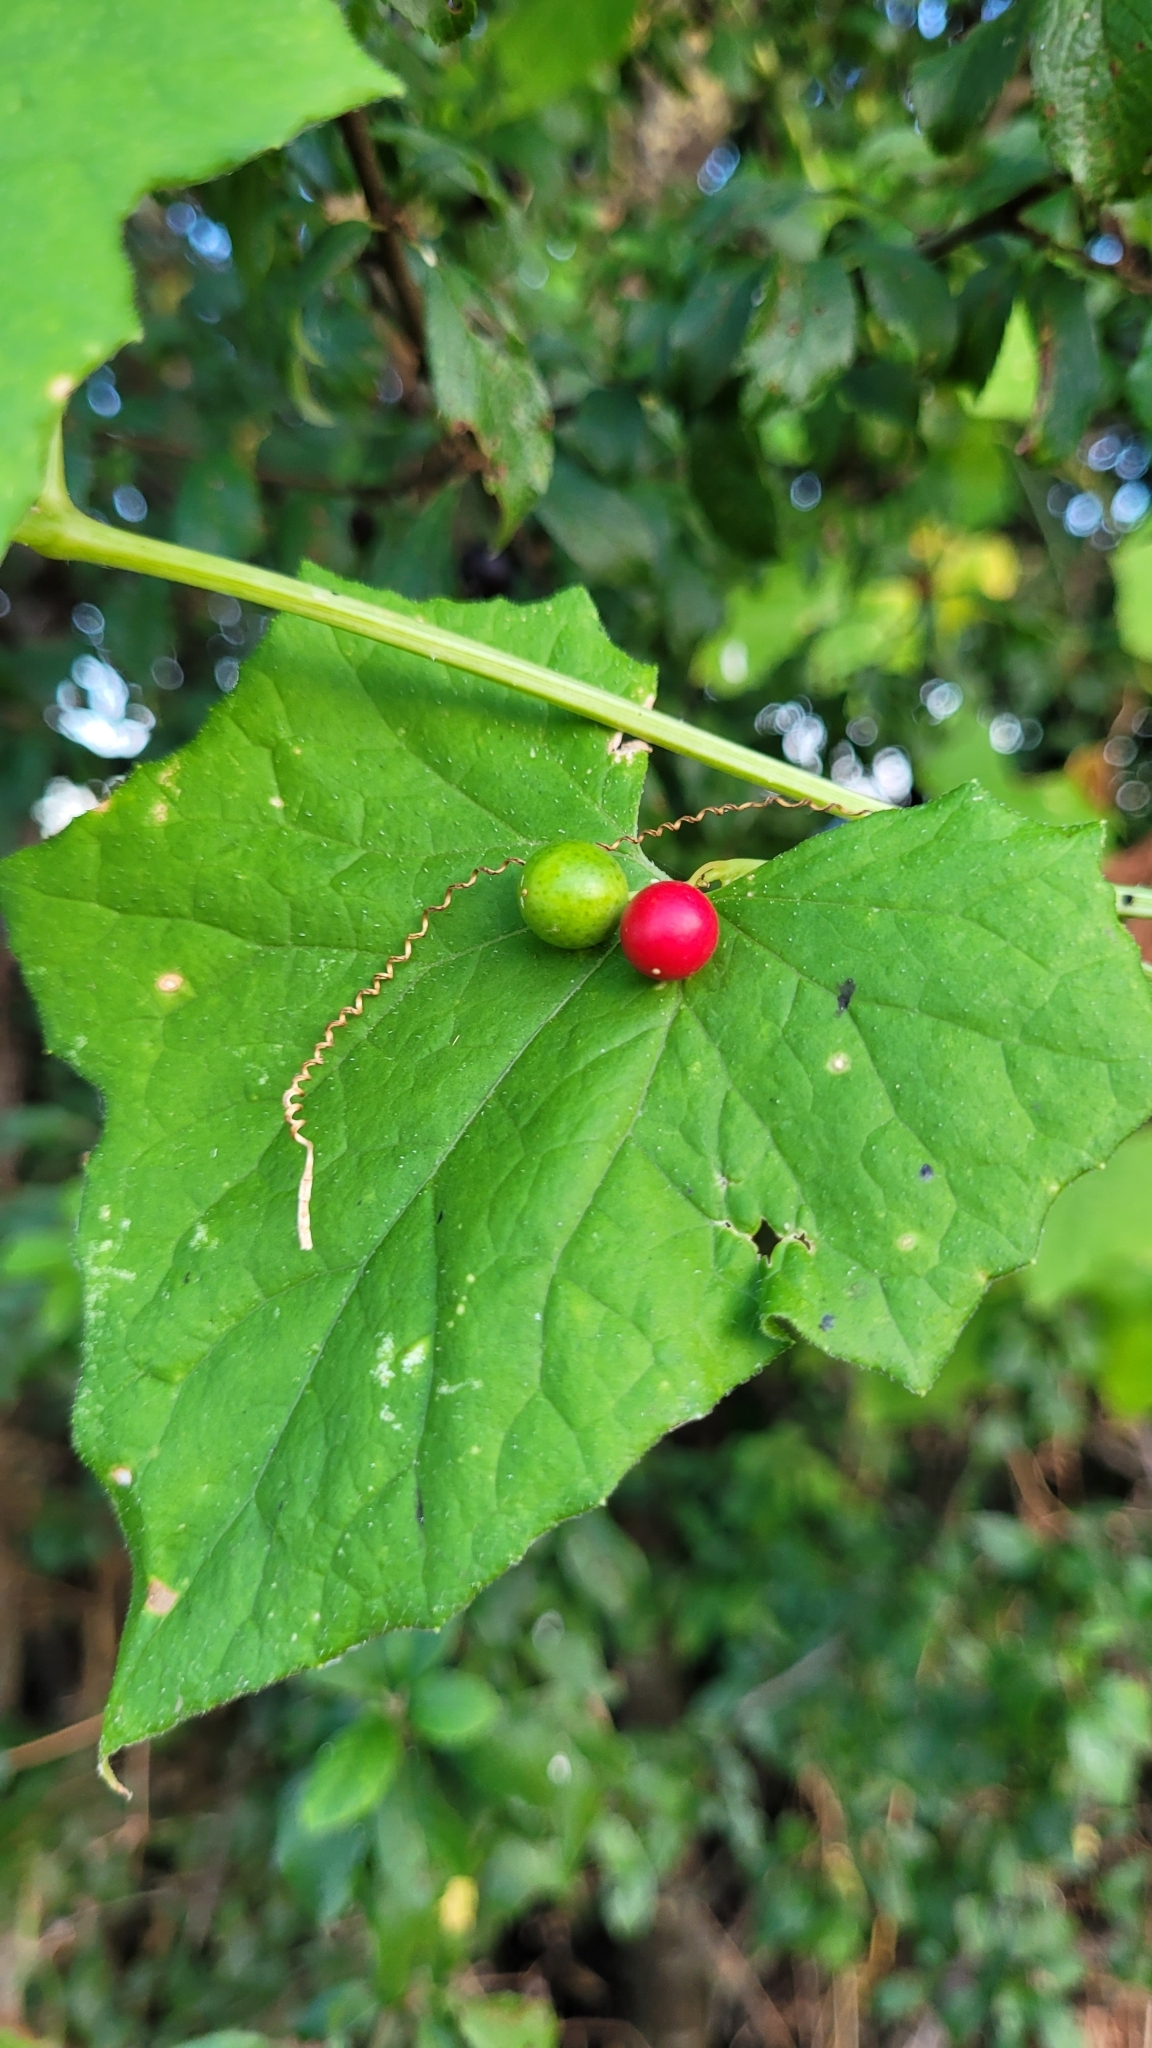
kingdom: Plantae
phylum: Tracheophyta
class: Magnoliopsida
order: Cucurbitales
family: Cucurbitaceae
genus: Bryonia
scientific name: Bryonia cretica
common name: Cretan bryony
